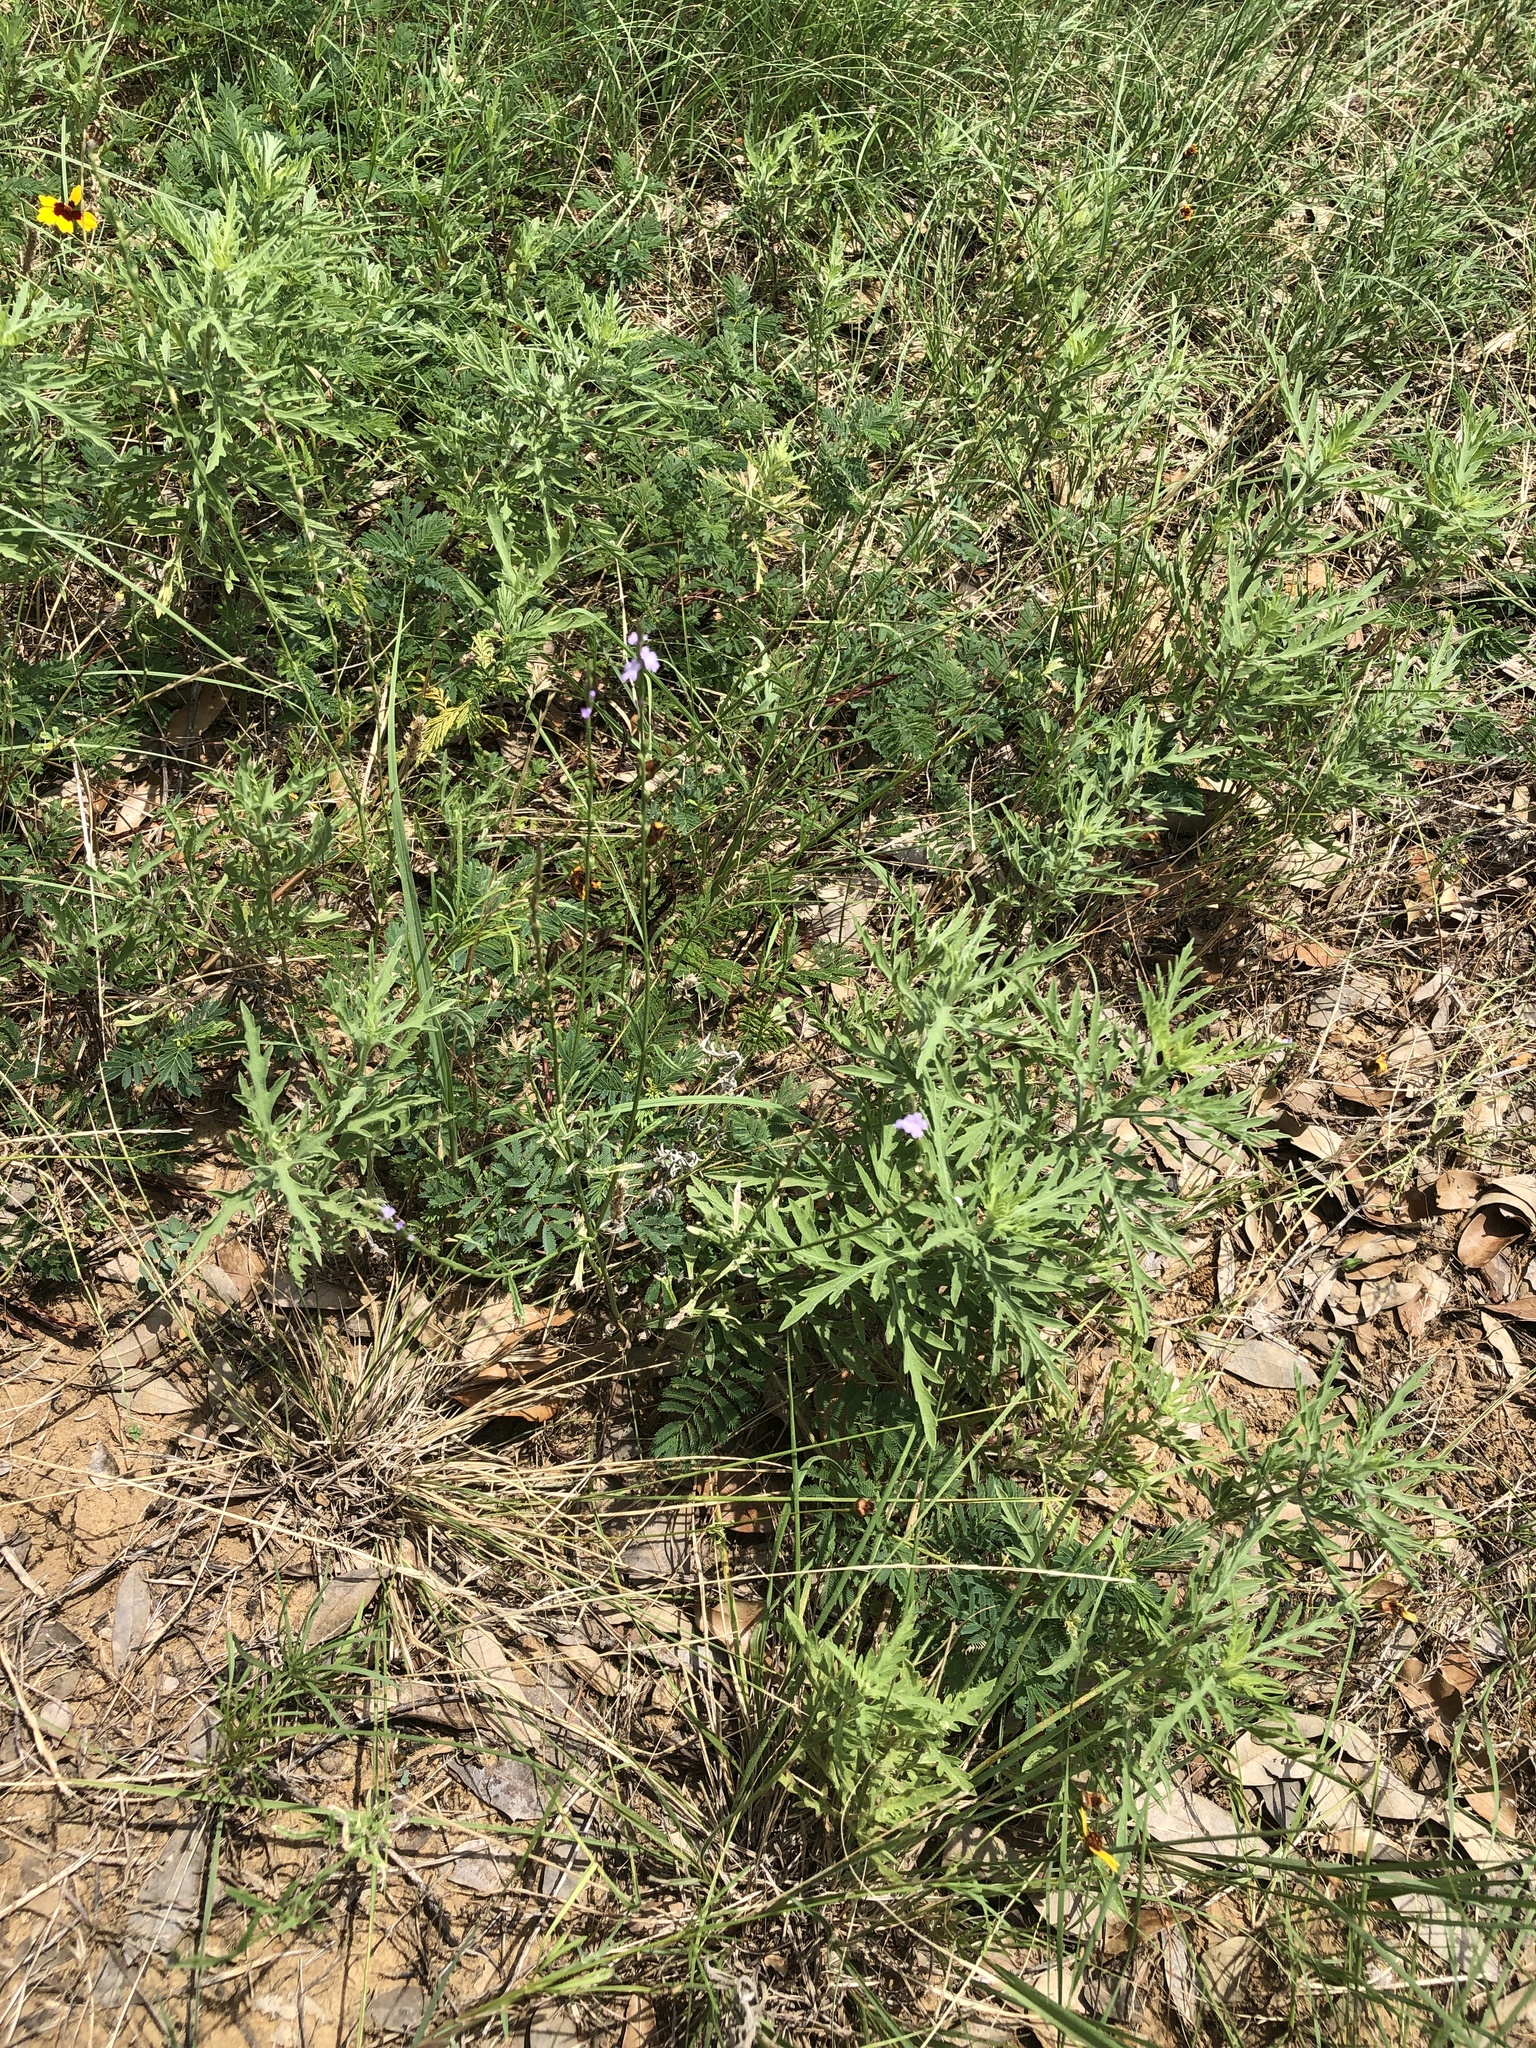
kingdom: Plantae
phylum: Tracheophyta
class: Magnoliopsida
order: Lamiales
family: Verbenaceae
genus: Verbena
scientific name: Verbena halei
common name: Texas vervain
